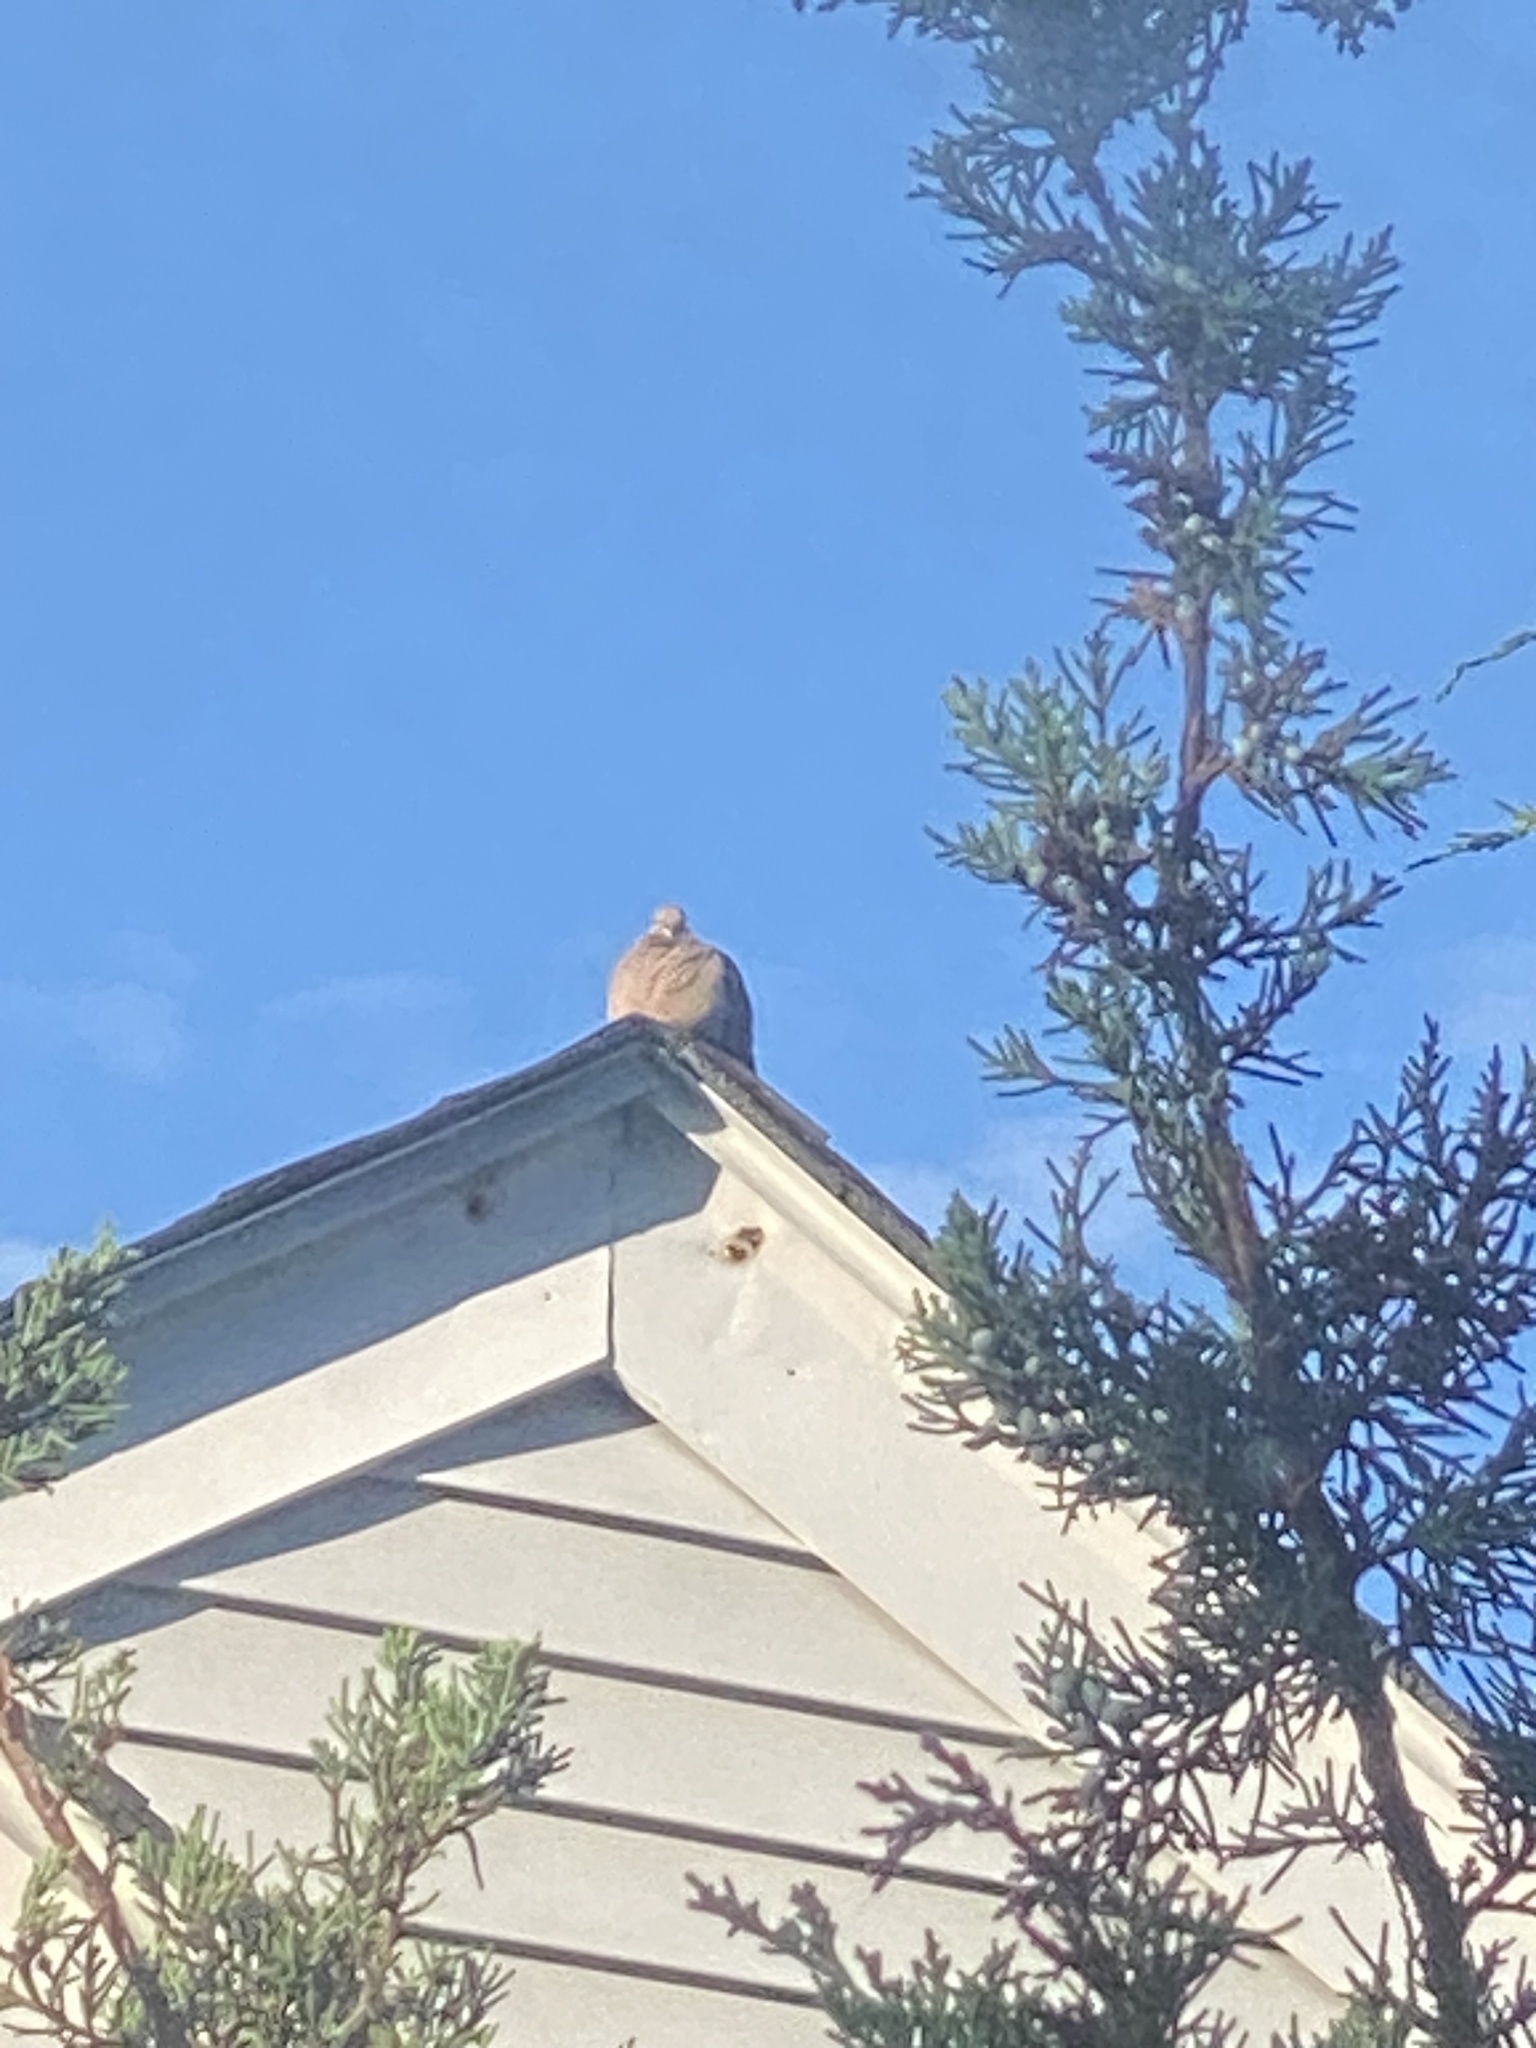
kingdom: Animalia
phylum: Chordata
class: Aves
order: Columbiformes
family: Columbidae
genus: Zenaida
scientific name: Zenaida macroura
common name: Mourning dove
